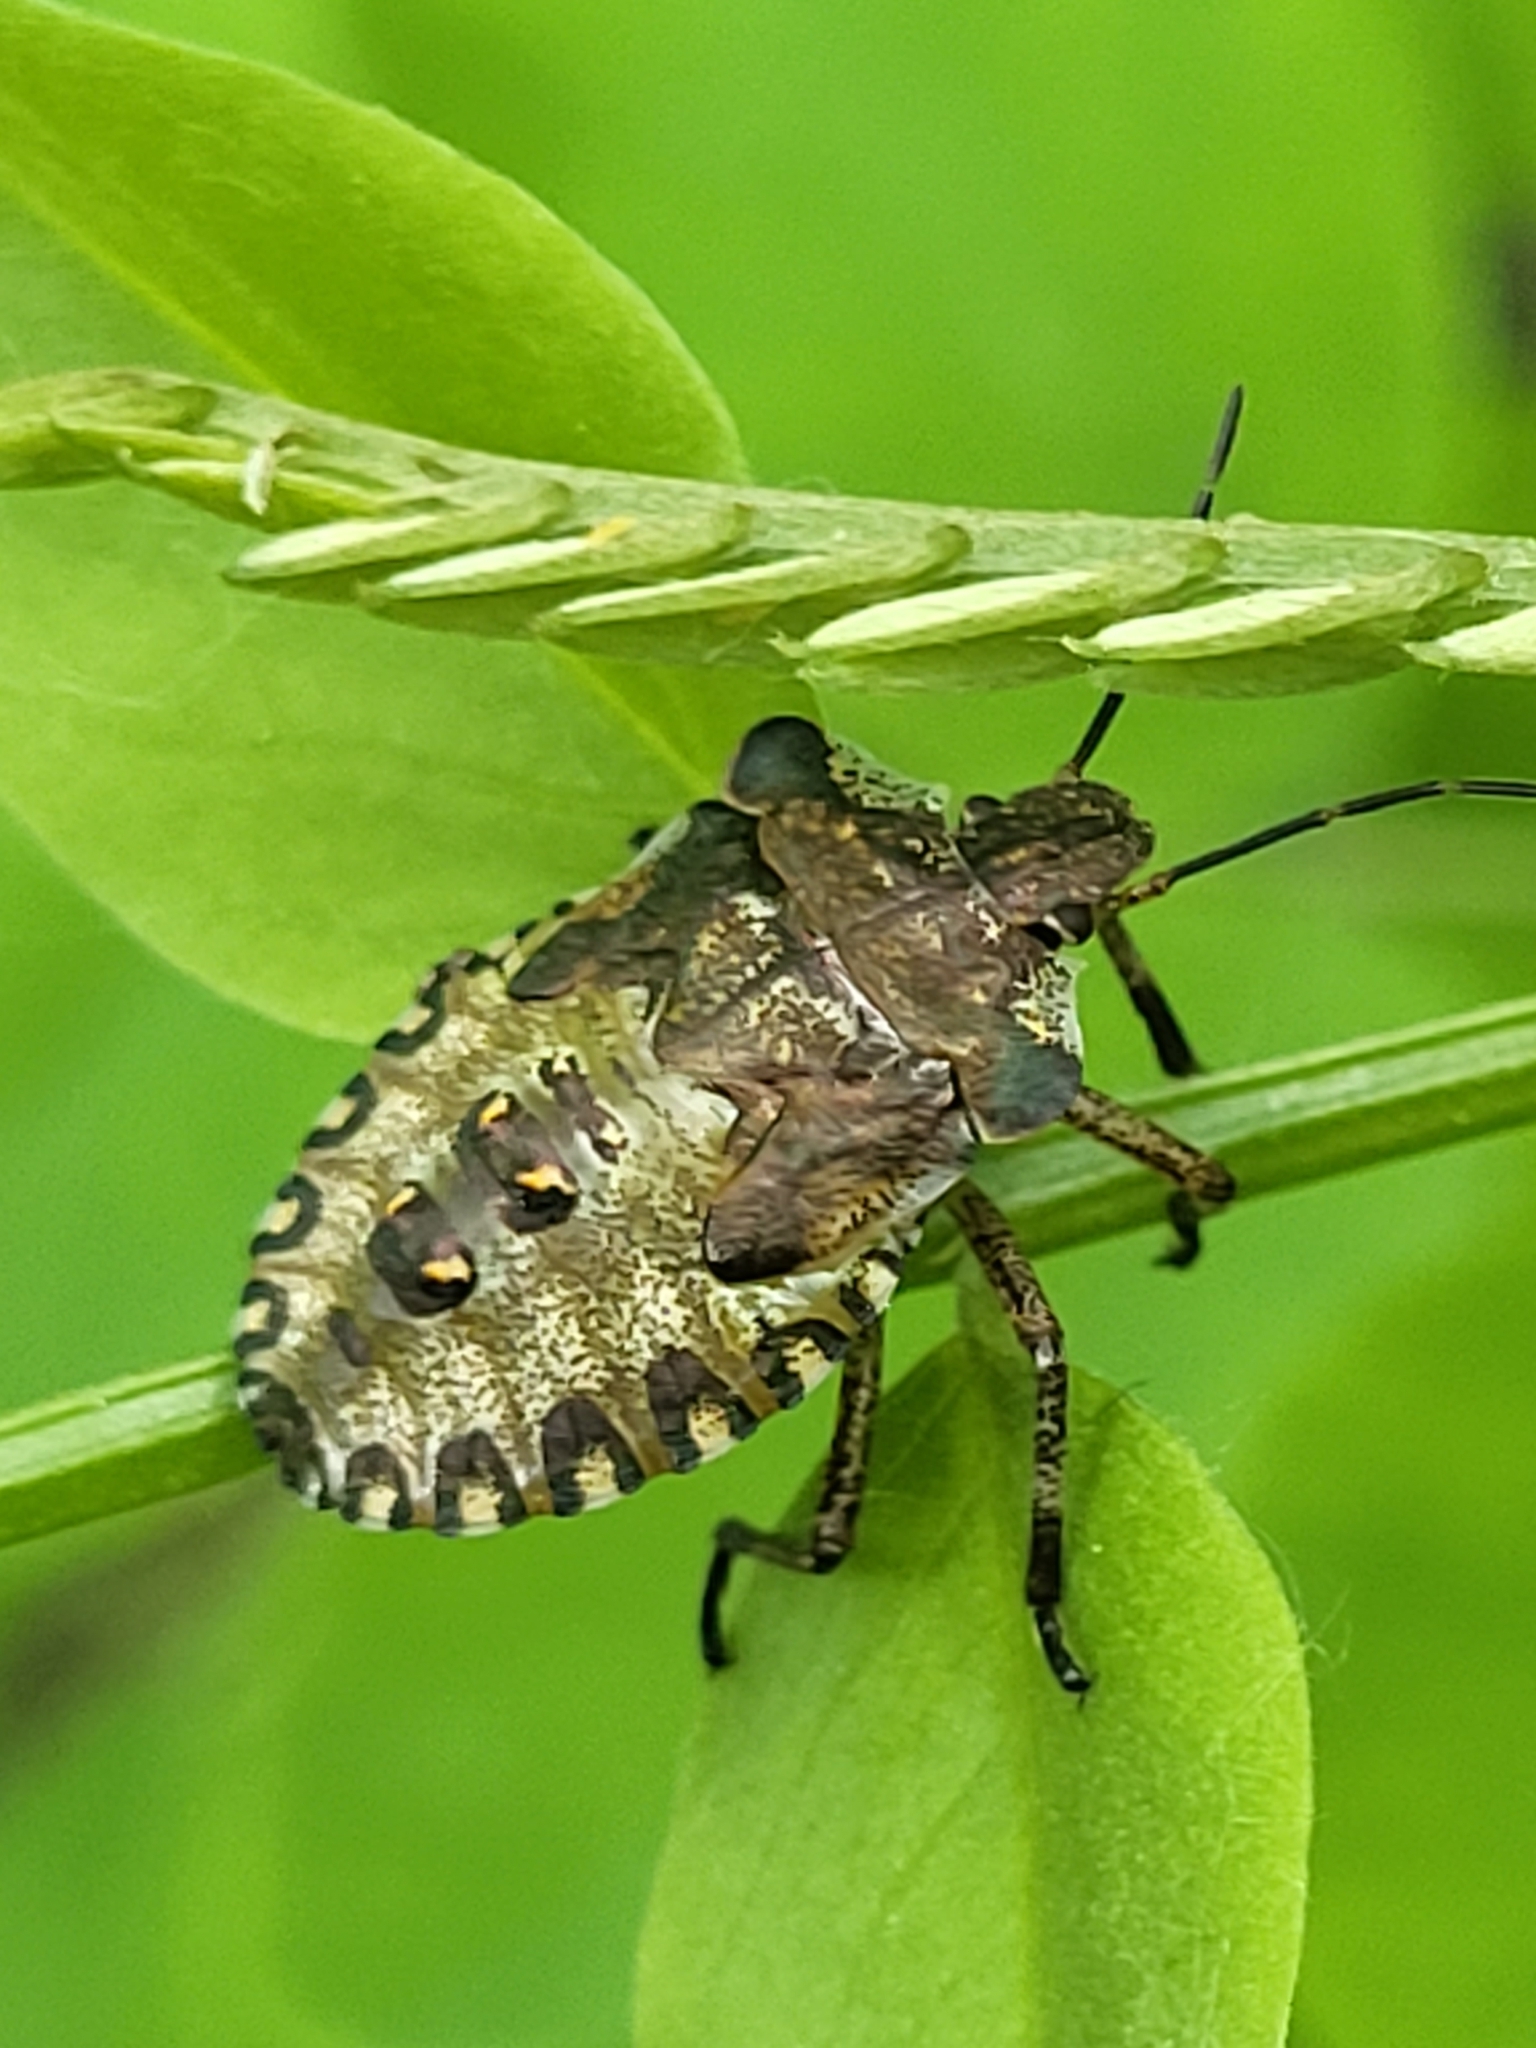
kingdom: Animalia
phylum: Arthropoda
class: Insecta
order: Hemiptera
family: Pentatomidae
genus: Pentatoma
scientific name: Pentatoma rufipes
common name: Forest bug
